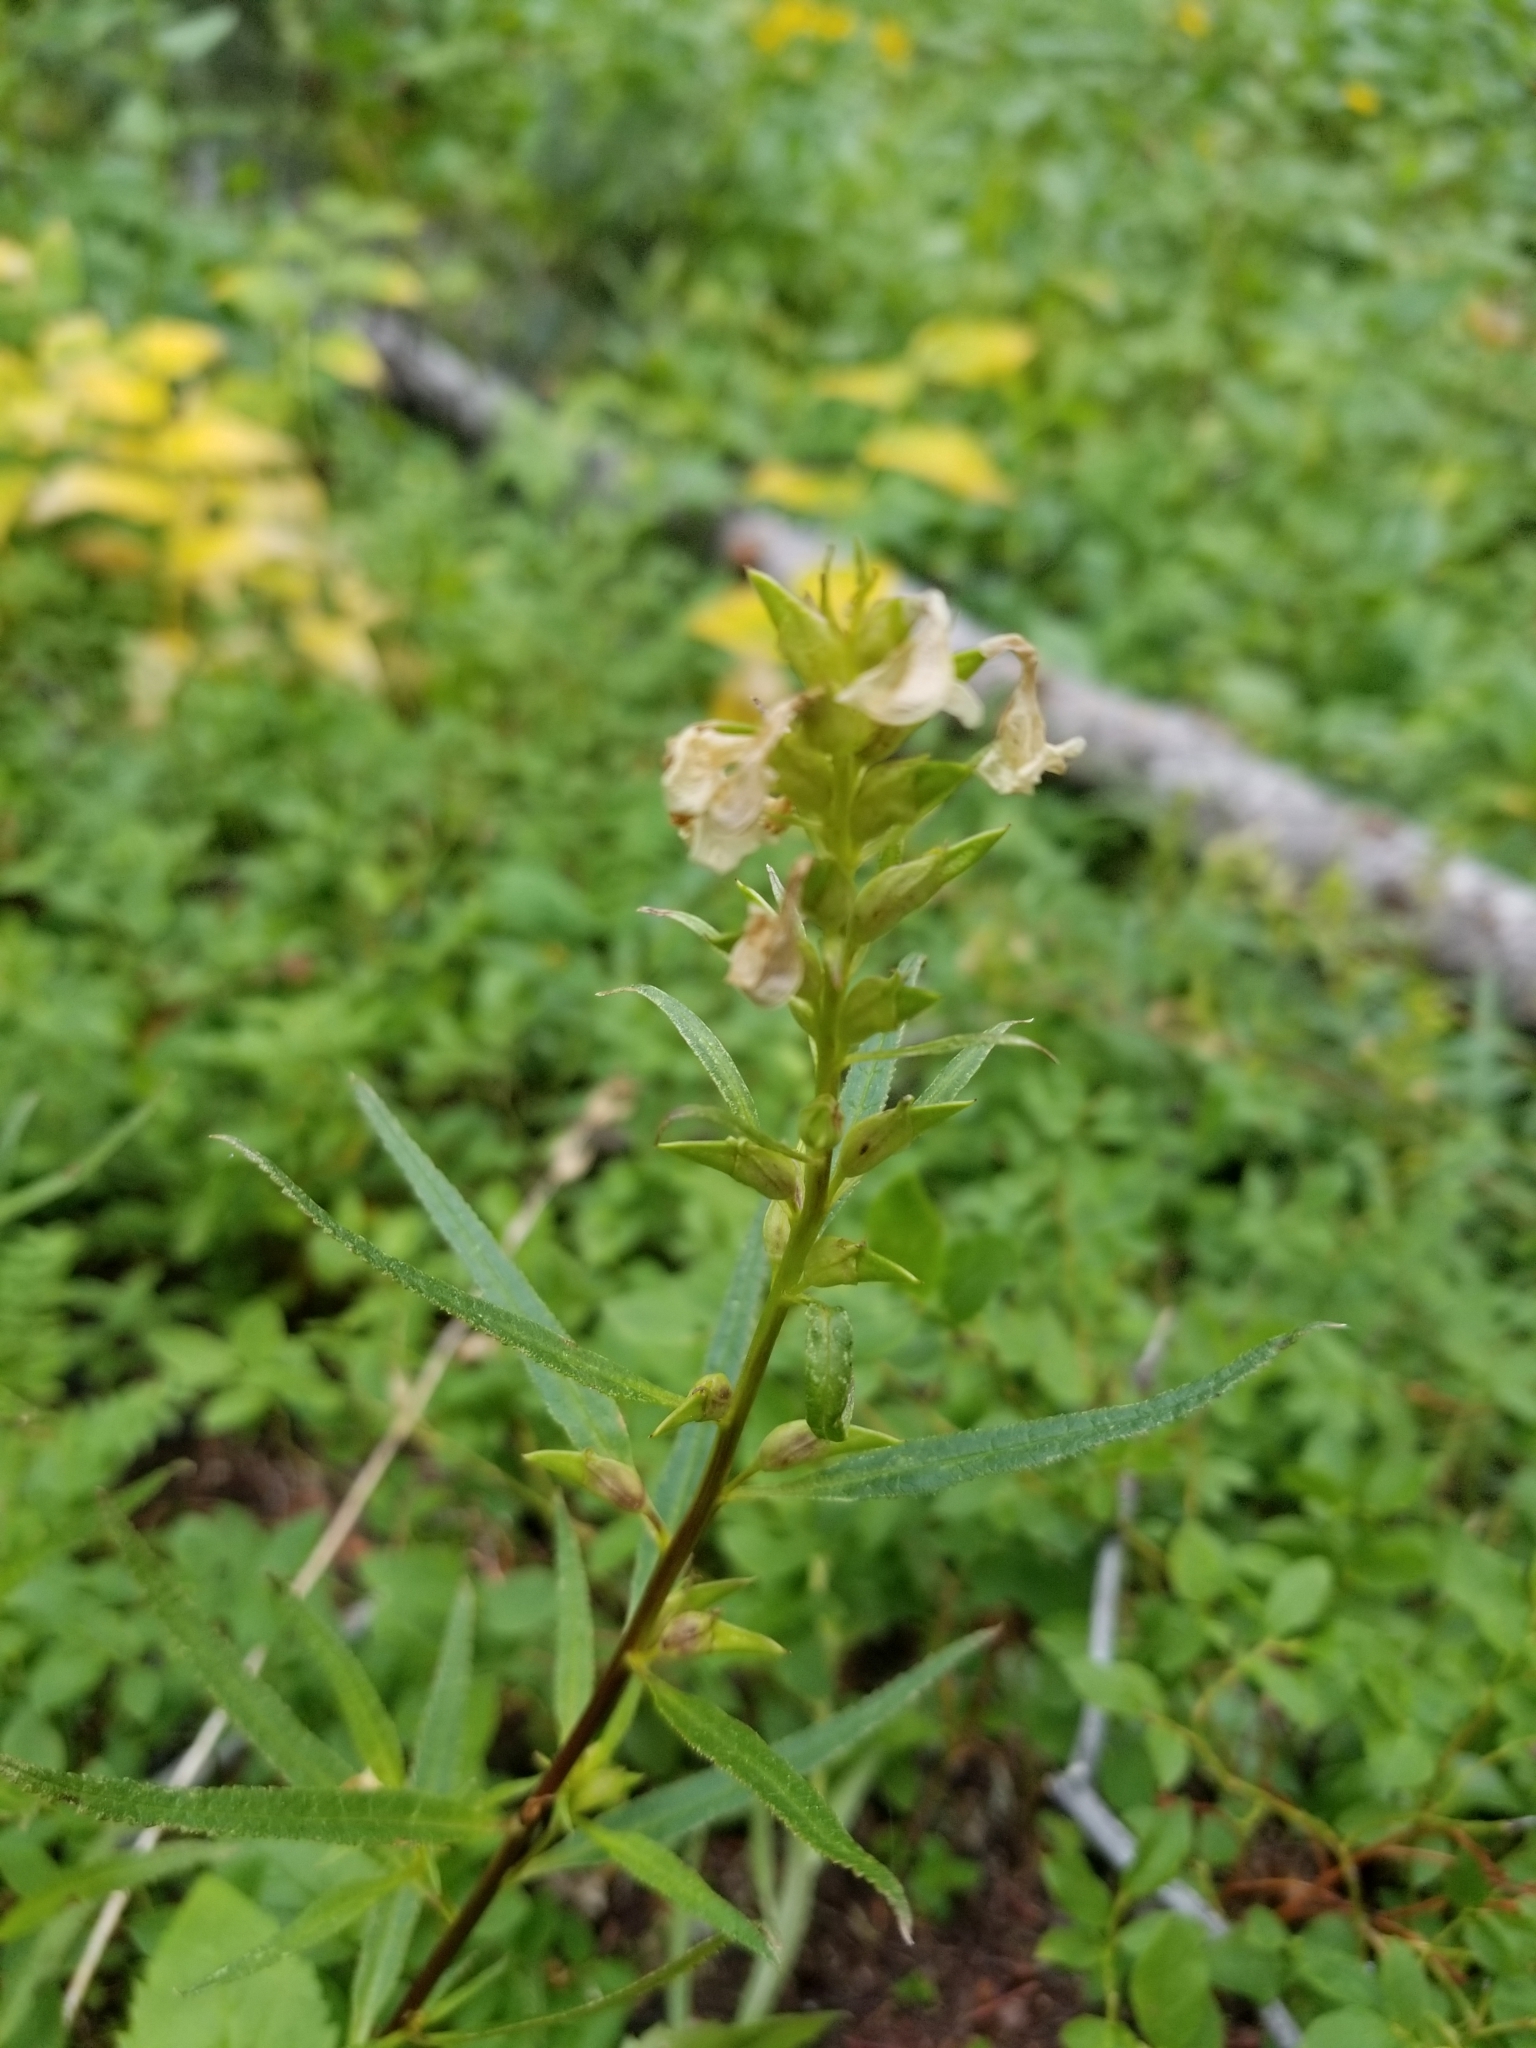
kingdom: Plantae
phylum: Tracheophyta
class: Magnoliopsida
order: Lamiales
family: Orobanchaceae
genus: Pedicularis
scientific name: Pedicularis racemosa
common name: Leafy lousewort
